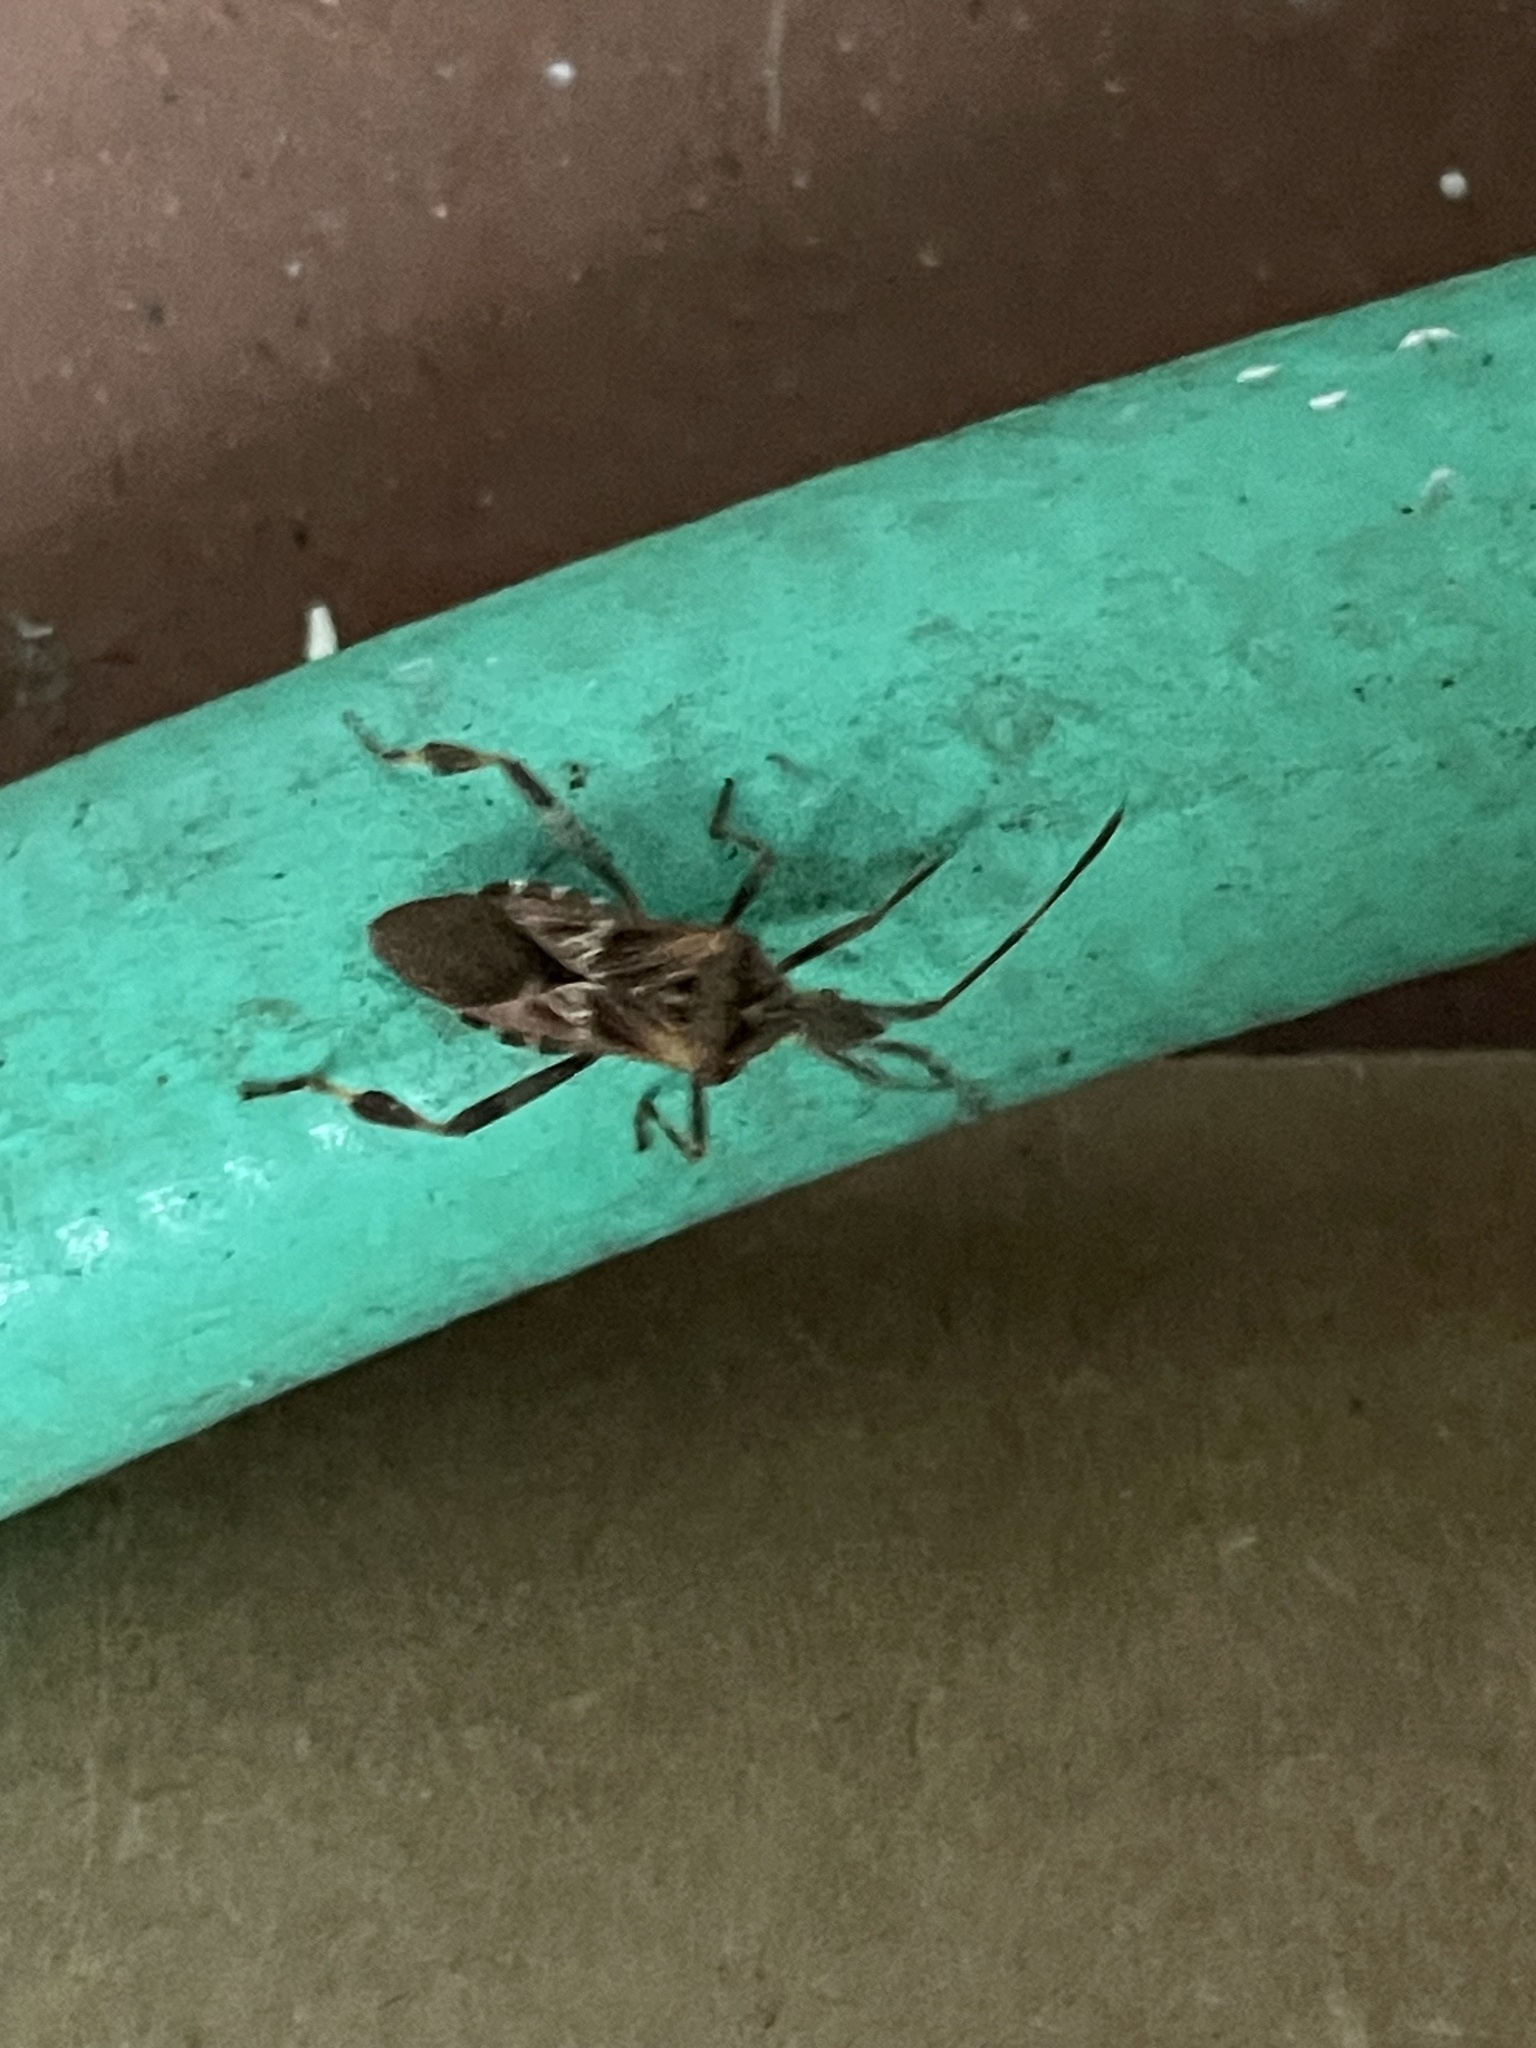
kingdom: Animalia
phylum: Arthropoda
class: Insecta
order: Hemiptera
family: Coreidae
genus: Leptoglossus
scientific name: Leptoglossus occidentalis
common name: Western conifer-seed bug
